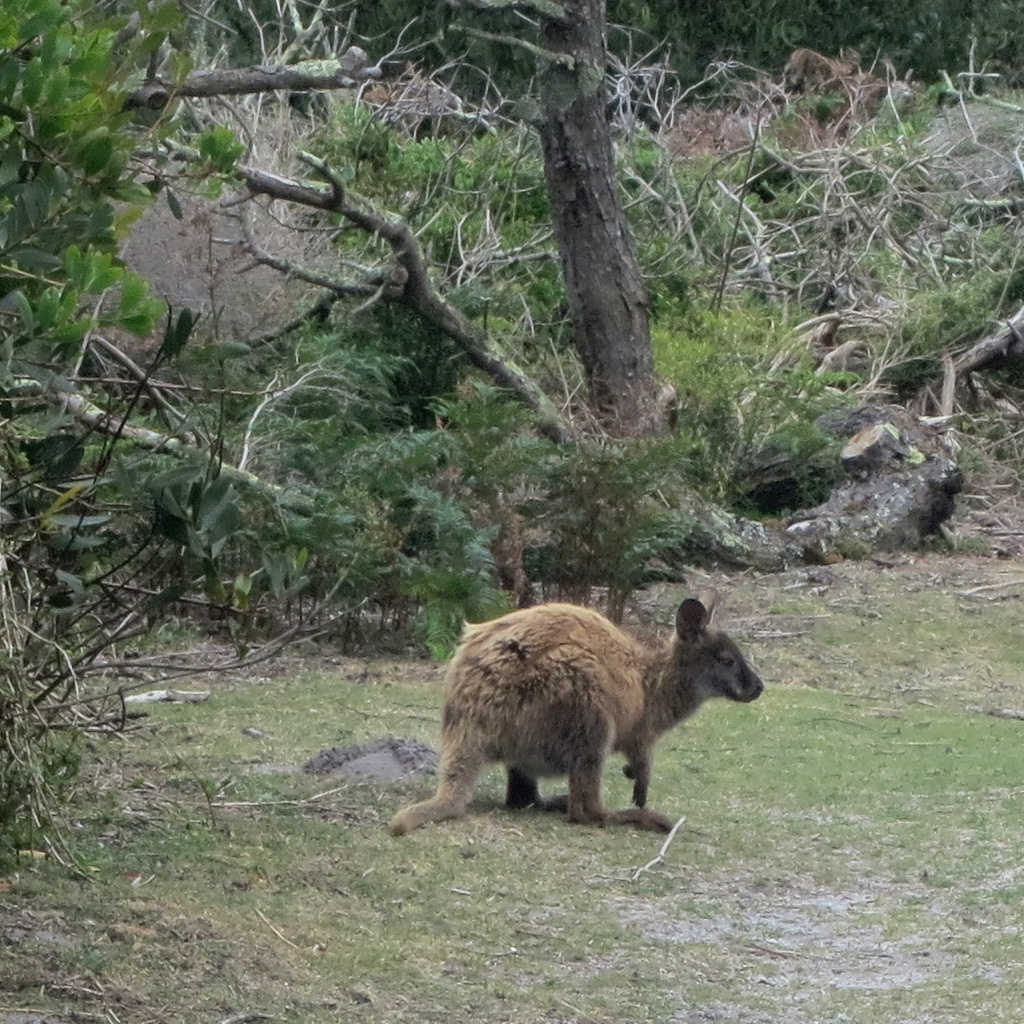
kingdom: Animalia
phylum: Chordata
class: Mammalia
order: Diprotodontia
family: Macropodidae
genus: Notamacropus
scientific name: Notamacropus rufogriseus
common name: Red-necked wallaby
